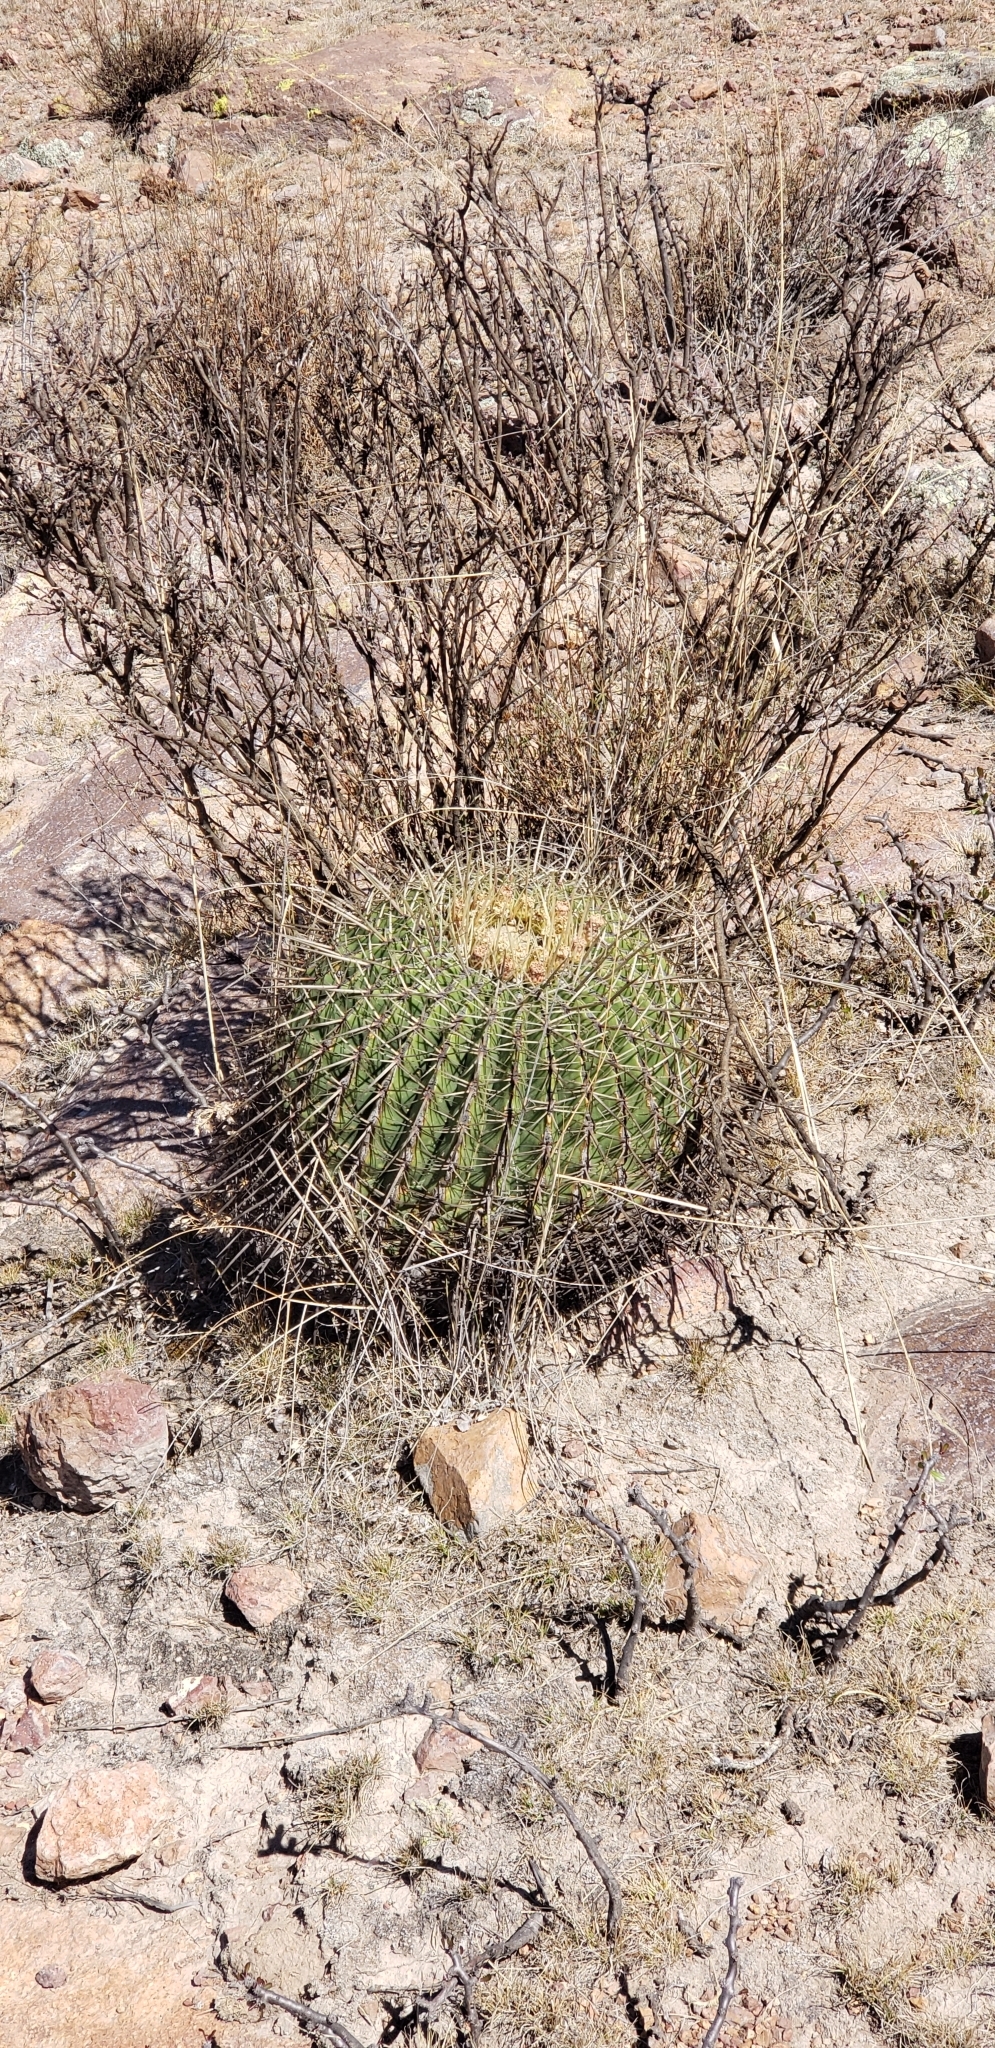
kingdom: Plantae
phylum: Tracheophyta
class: Magnoliopsida
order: Caryophyllales
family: Cactaceae
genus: Bisnaga
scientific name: Bisnaga histrix
